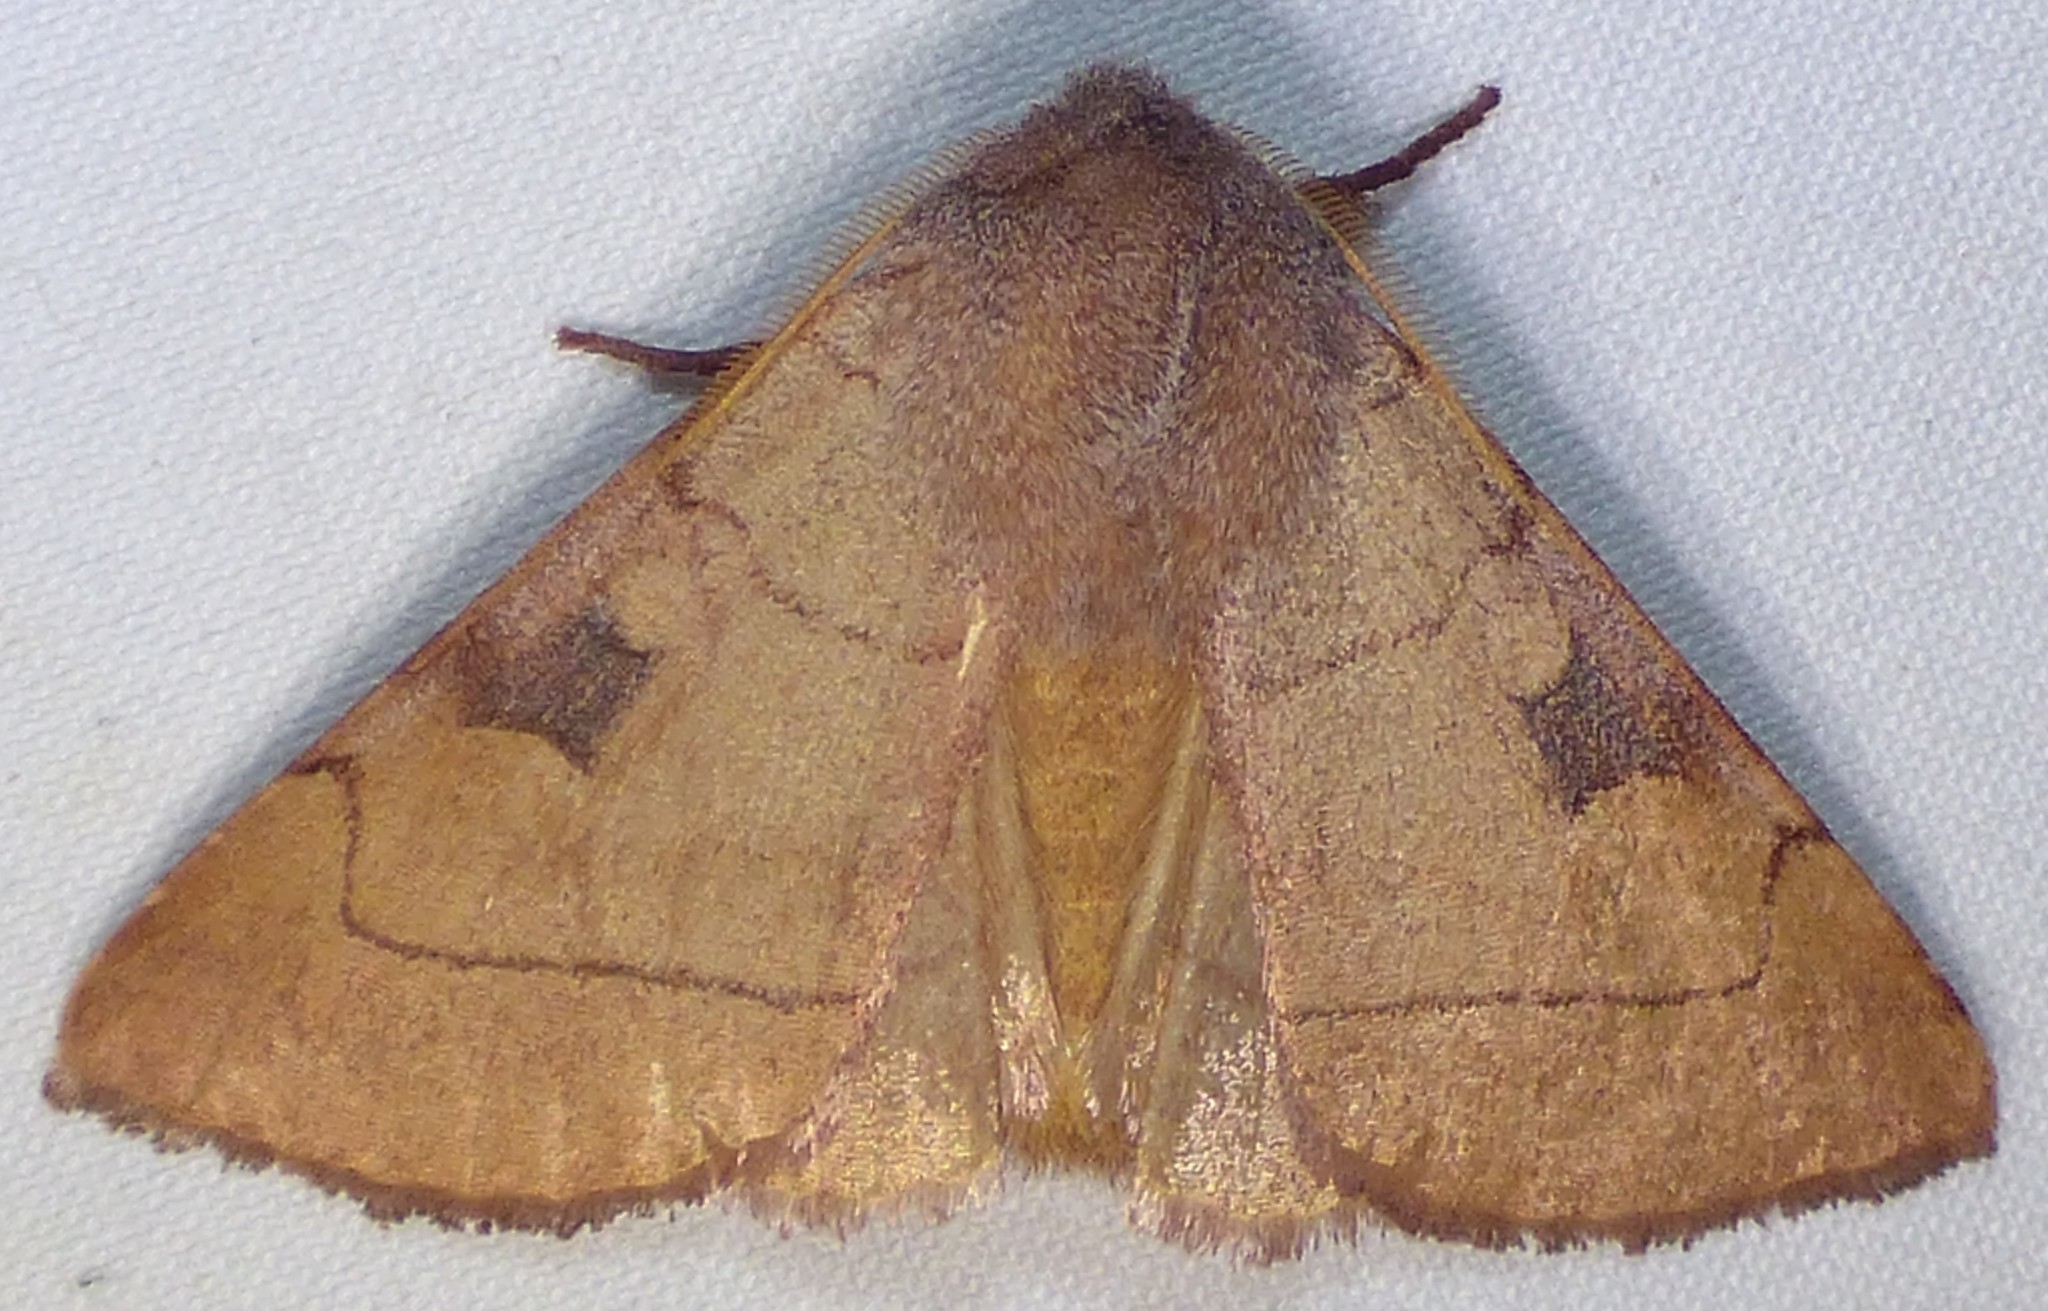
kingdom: Animalia
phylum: Arthropoda
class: Insecta
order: Lepidoptera
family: Noctuidae
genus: Choephora
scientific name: Choephora fungorum
